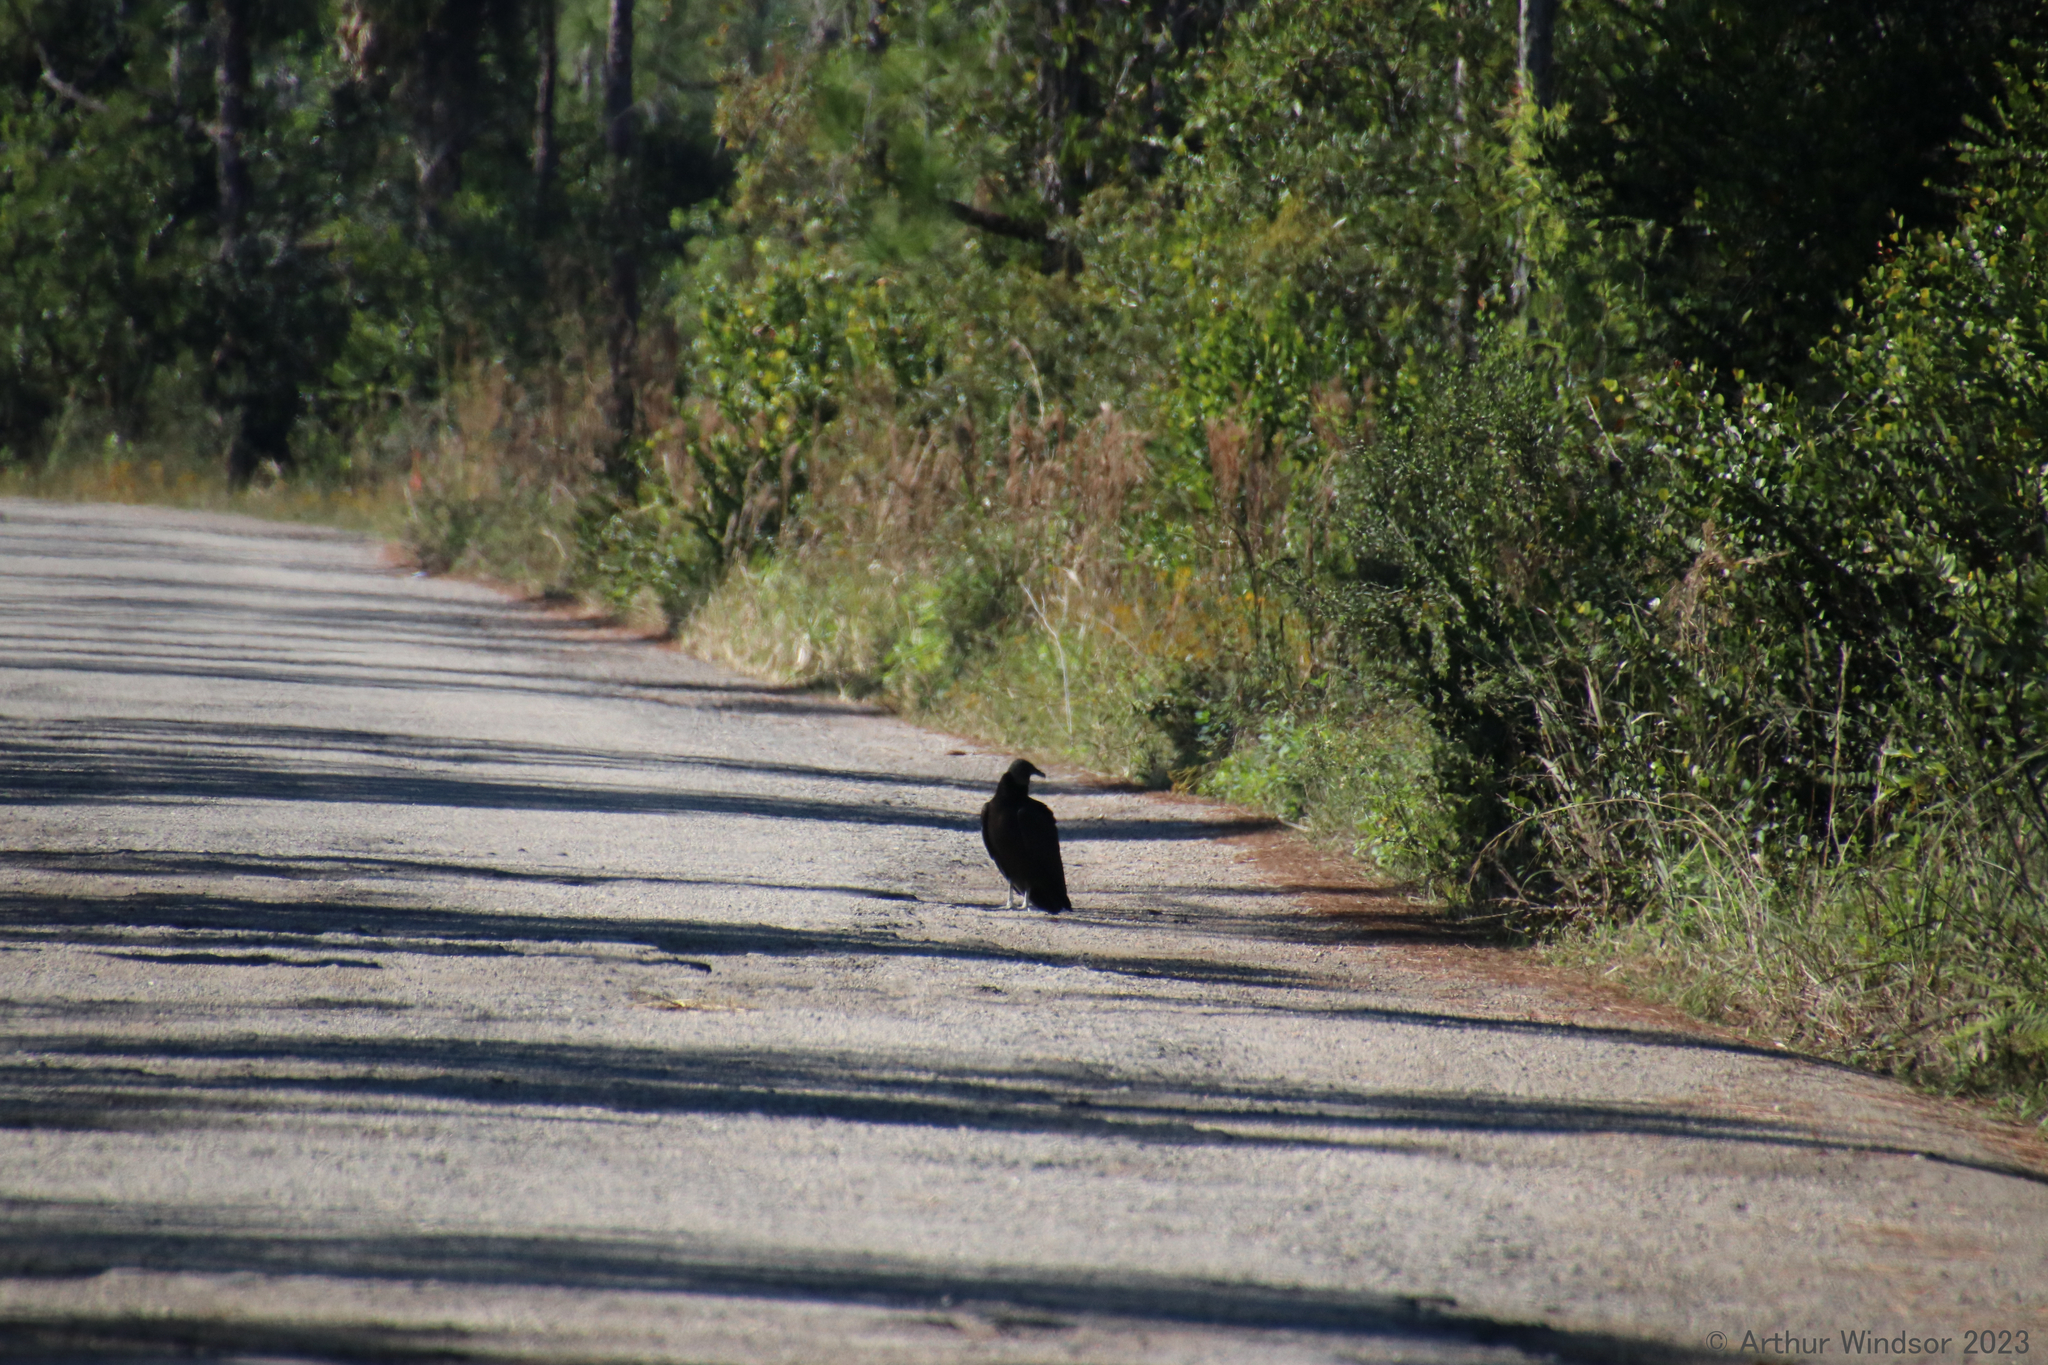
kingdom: Animalia
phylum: Chordata
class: Aves
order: Accipitriformes
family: Cathartidae
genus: Coragyps
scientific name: Coragyps atratus
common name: Black vulture
